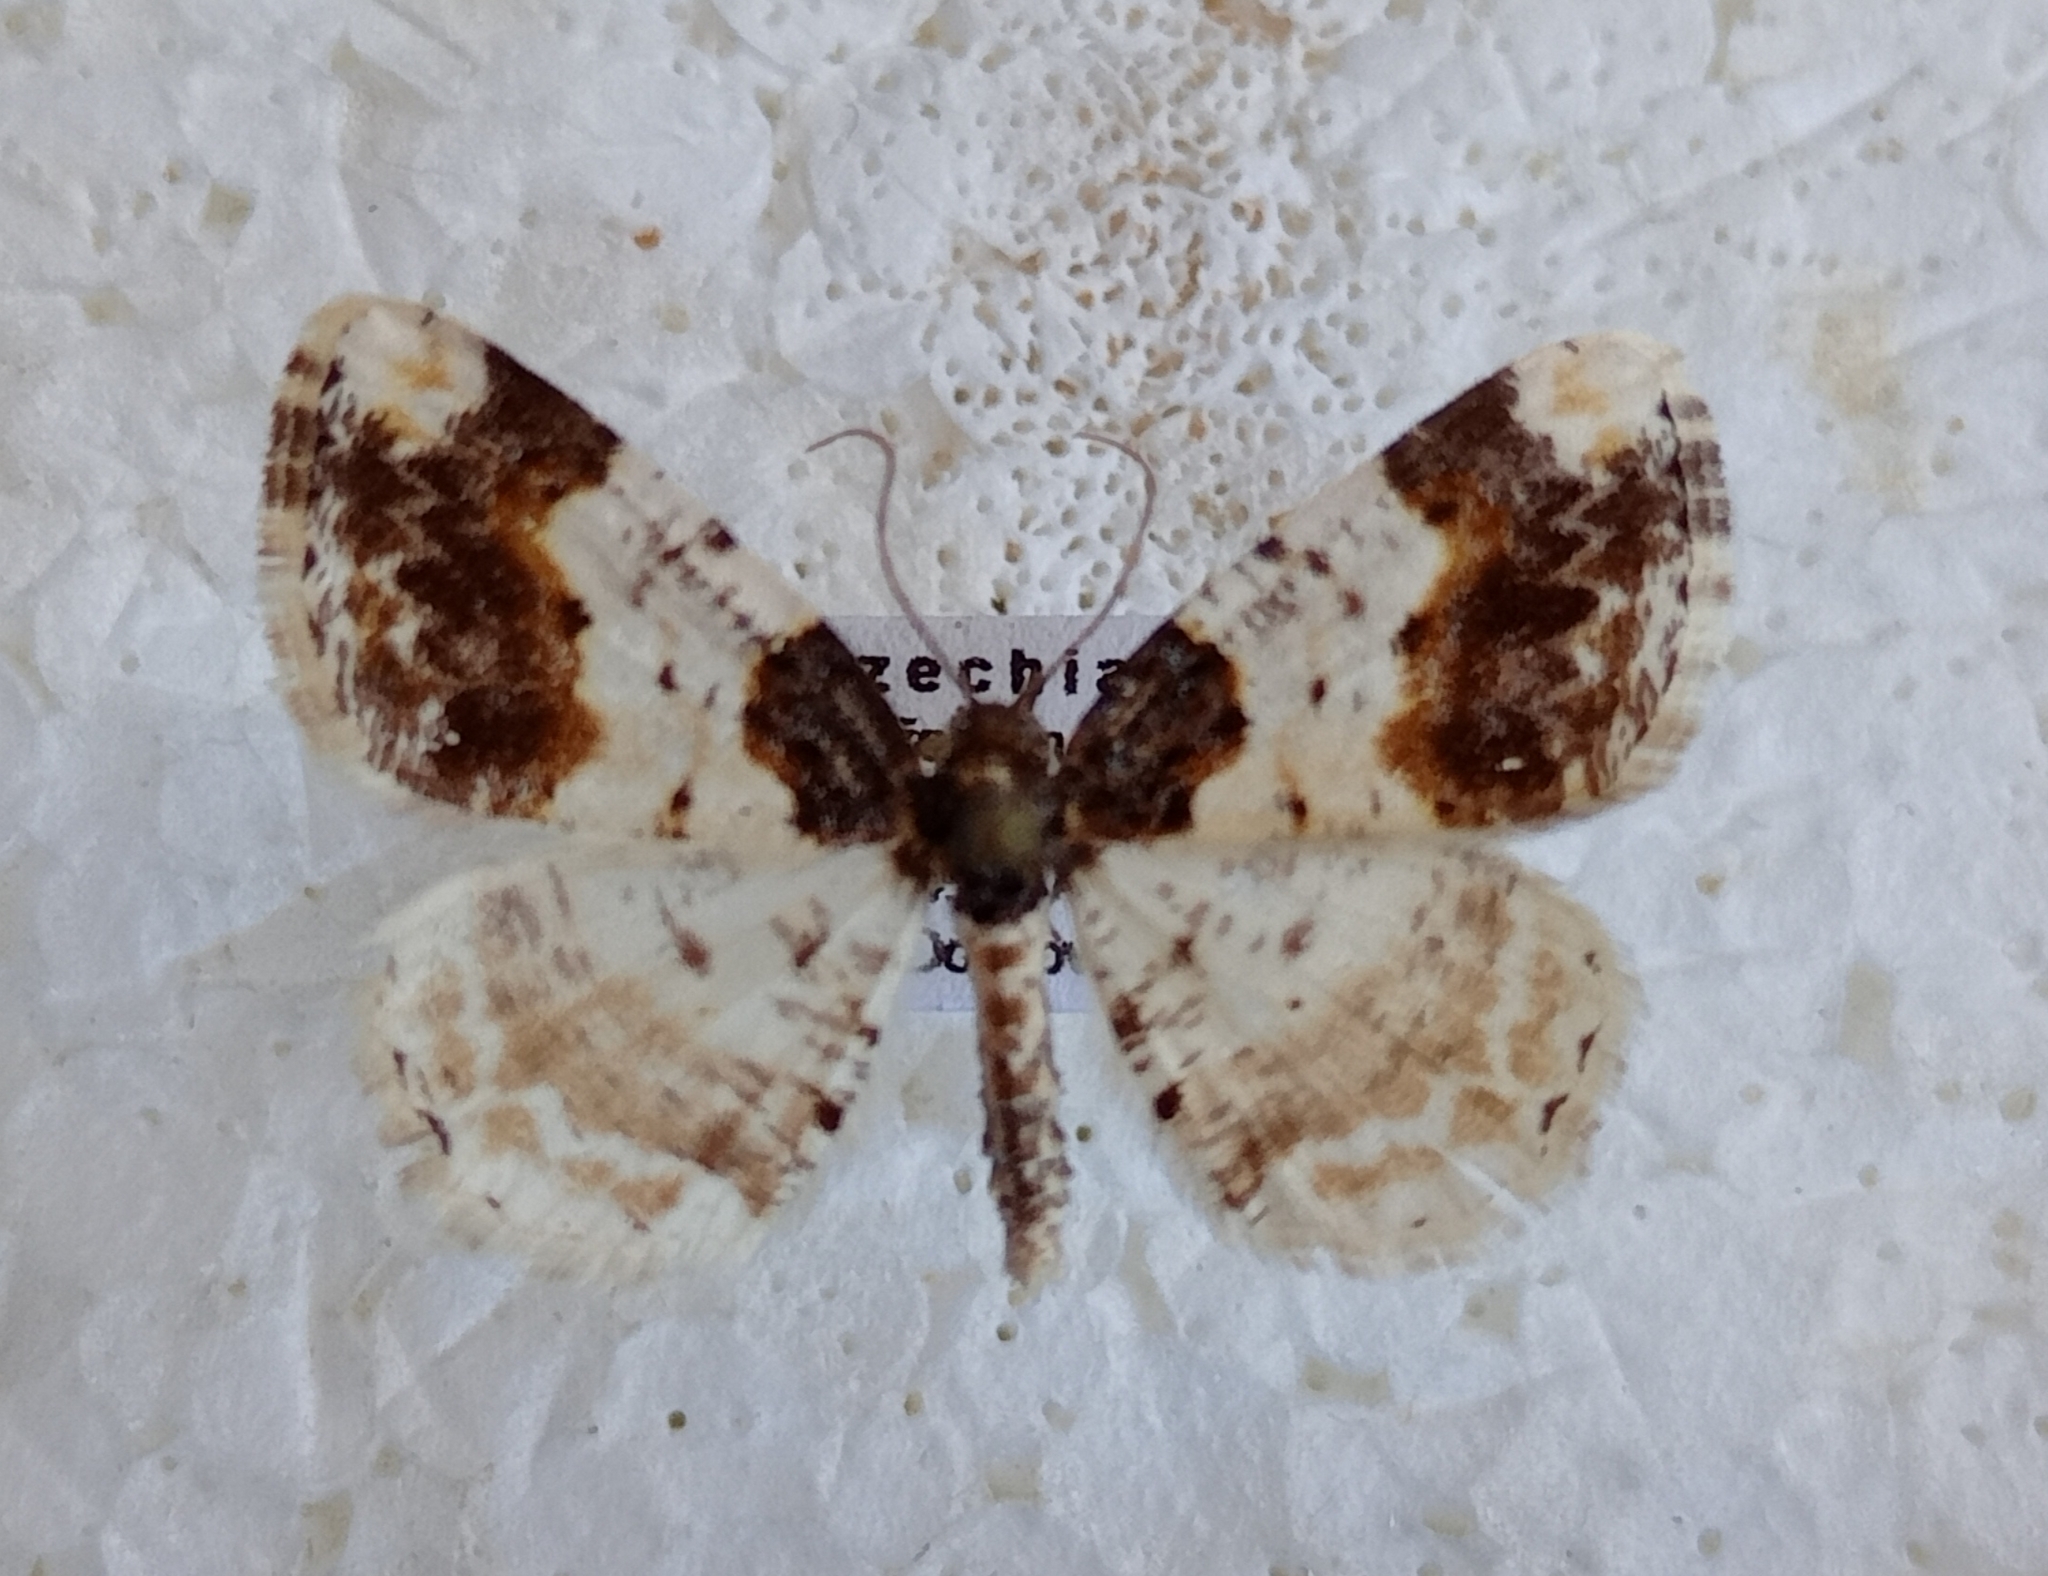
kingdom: Animalia
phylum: Arthropoda
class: Insecta
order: Lepidoptera
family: Geometridae
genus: Ligdia
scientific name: Ligdia adustata
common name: Scorched carpet
